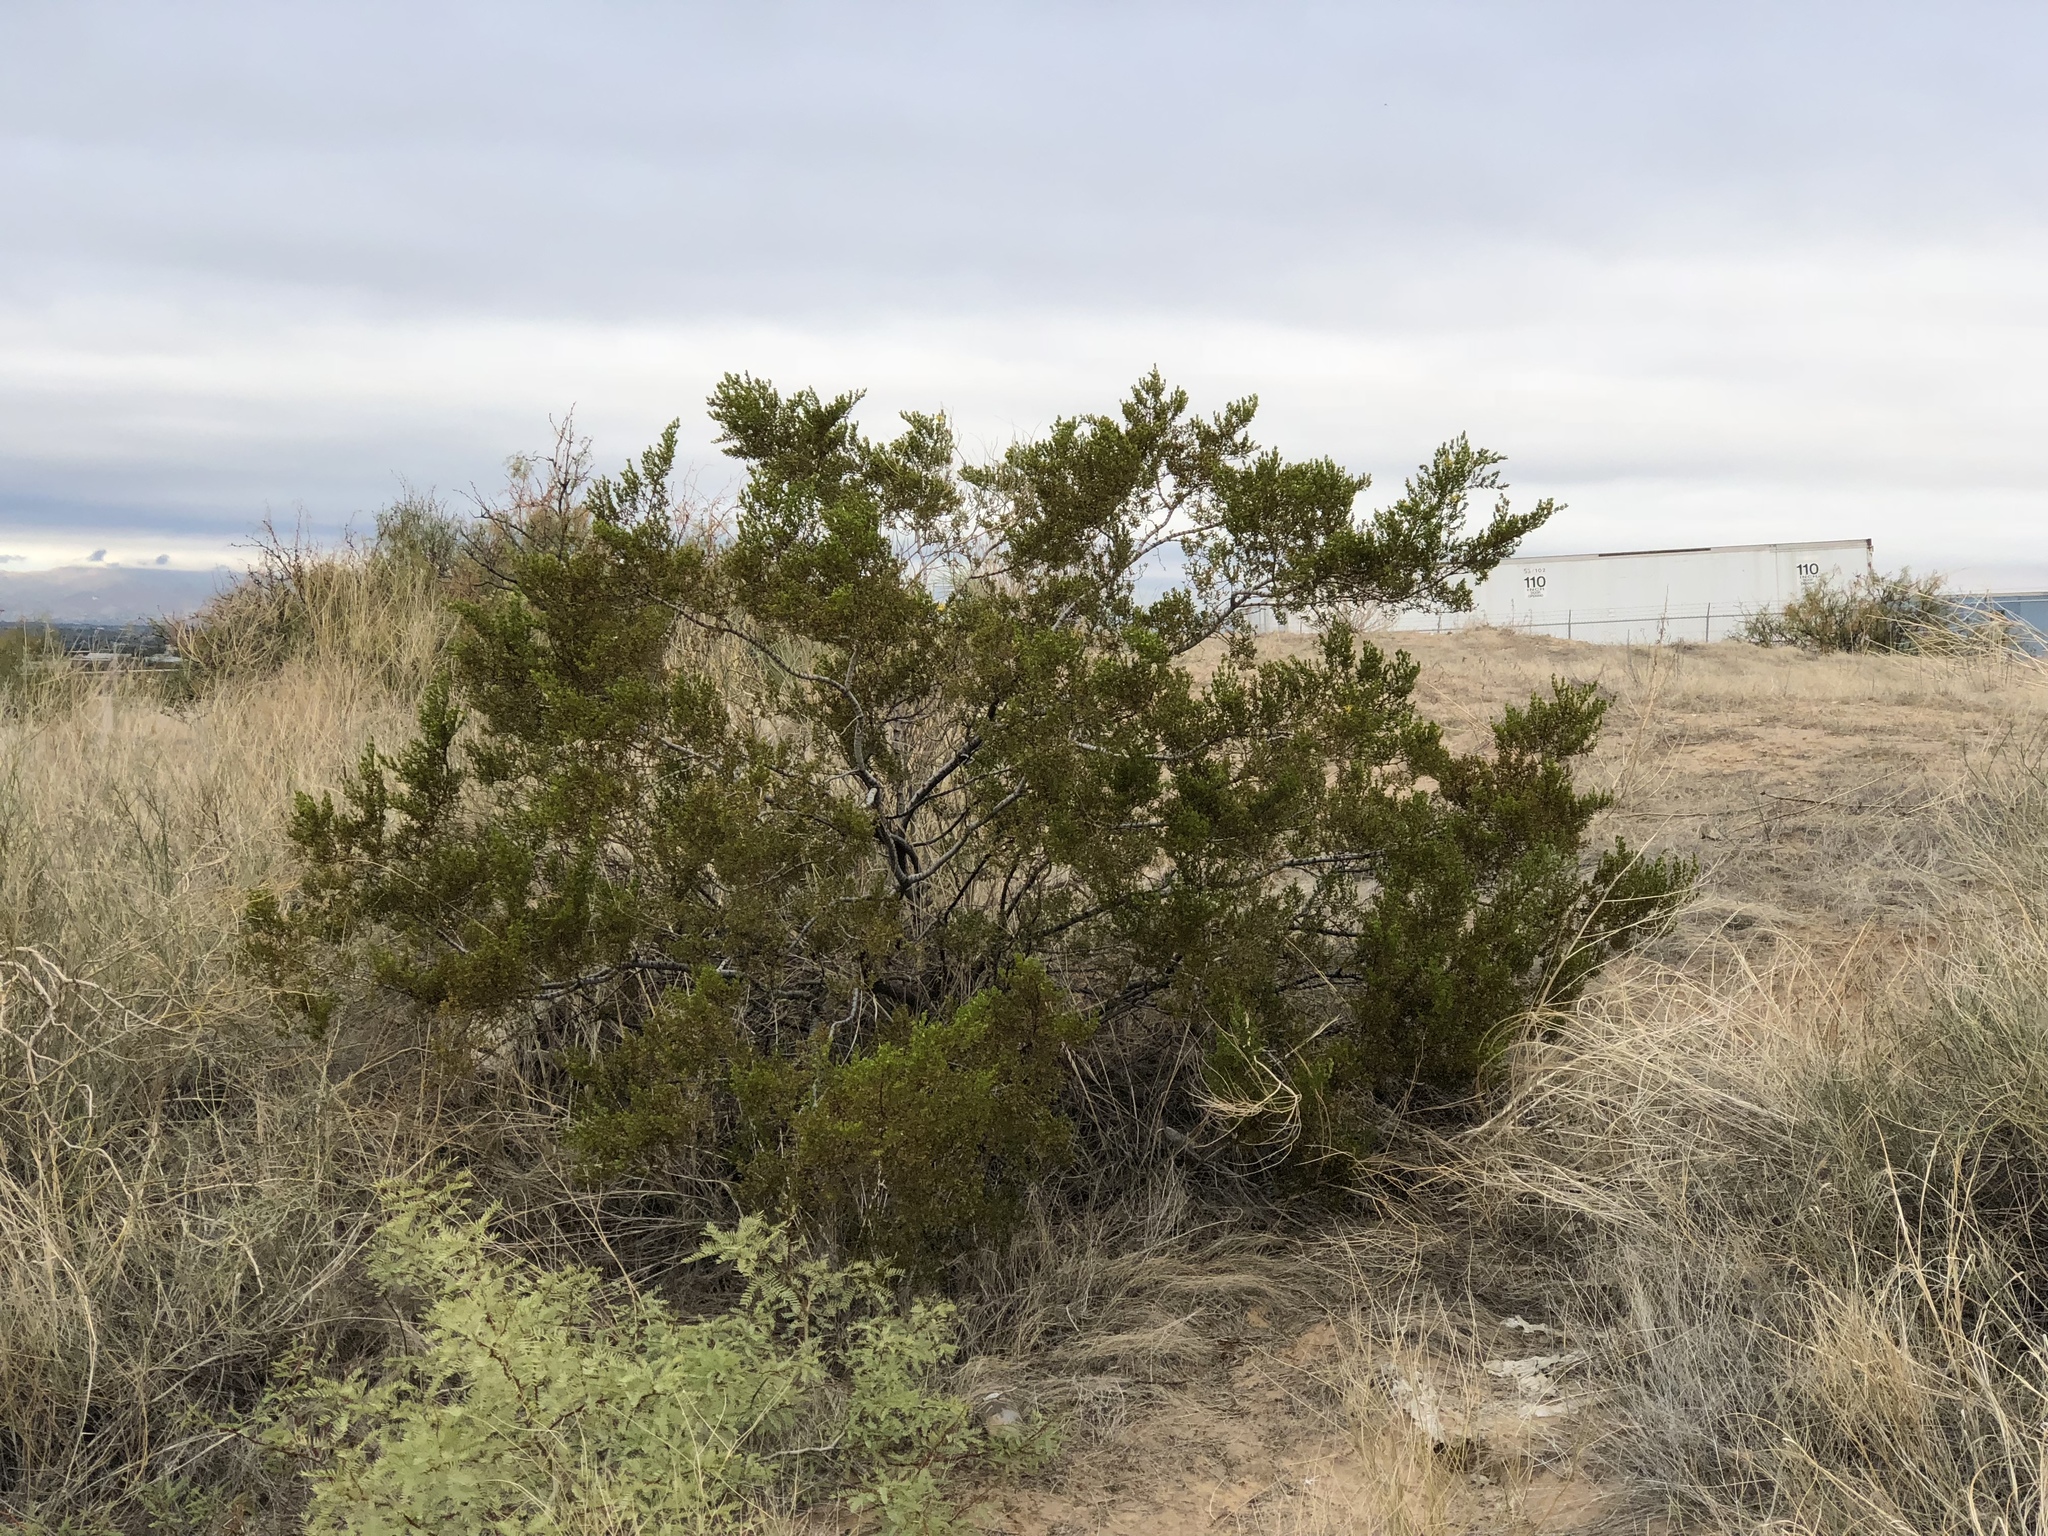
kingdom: Plantae
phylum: Tracheophyta
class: Magnoliopsida
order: Zygophyllales
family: Zygophyllaceae
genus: Larrea
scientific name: Larrea tridentata
